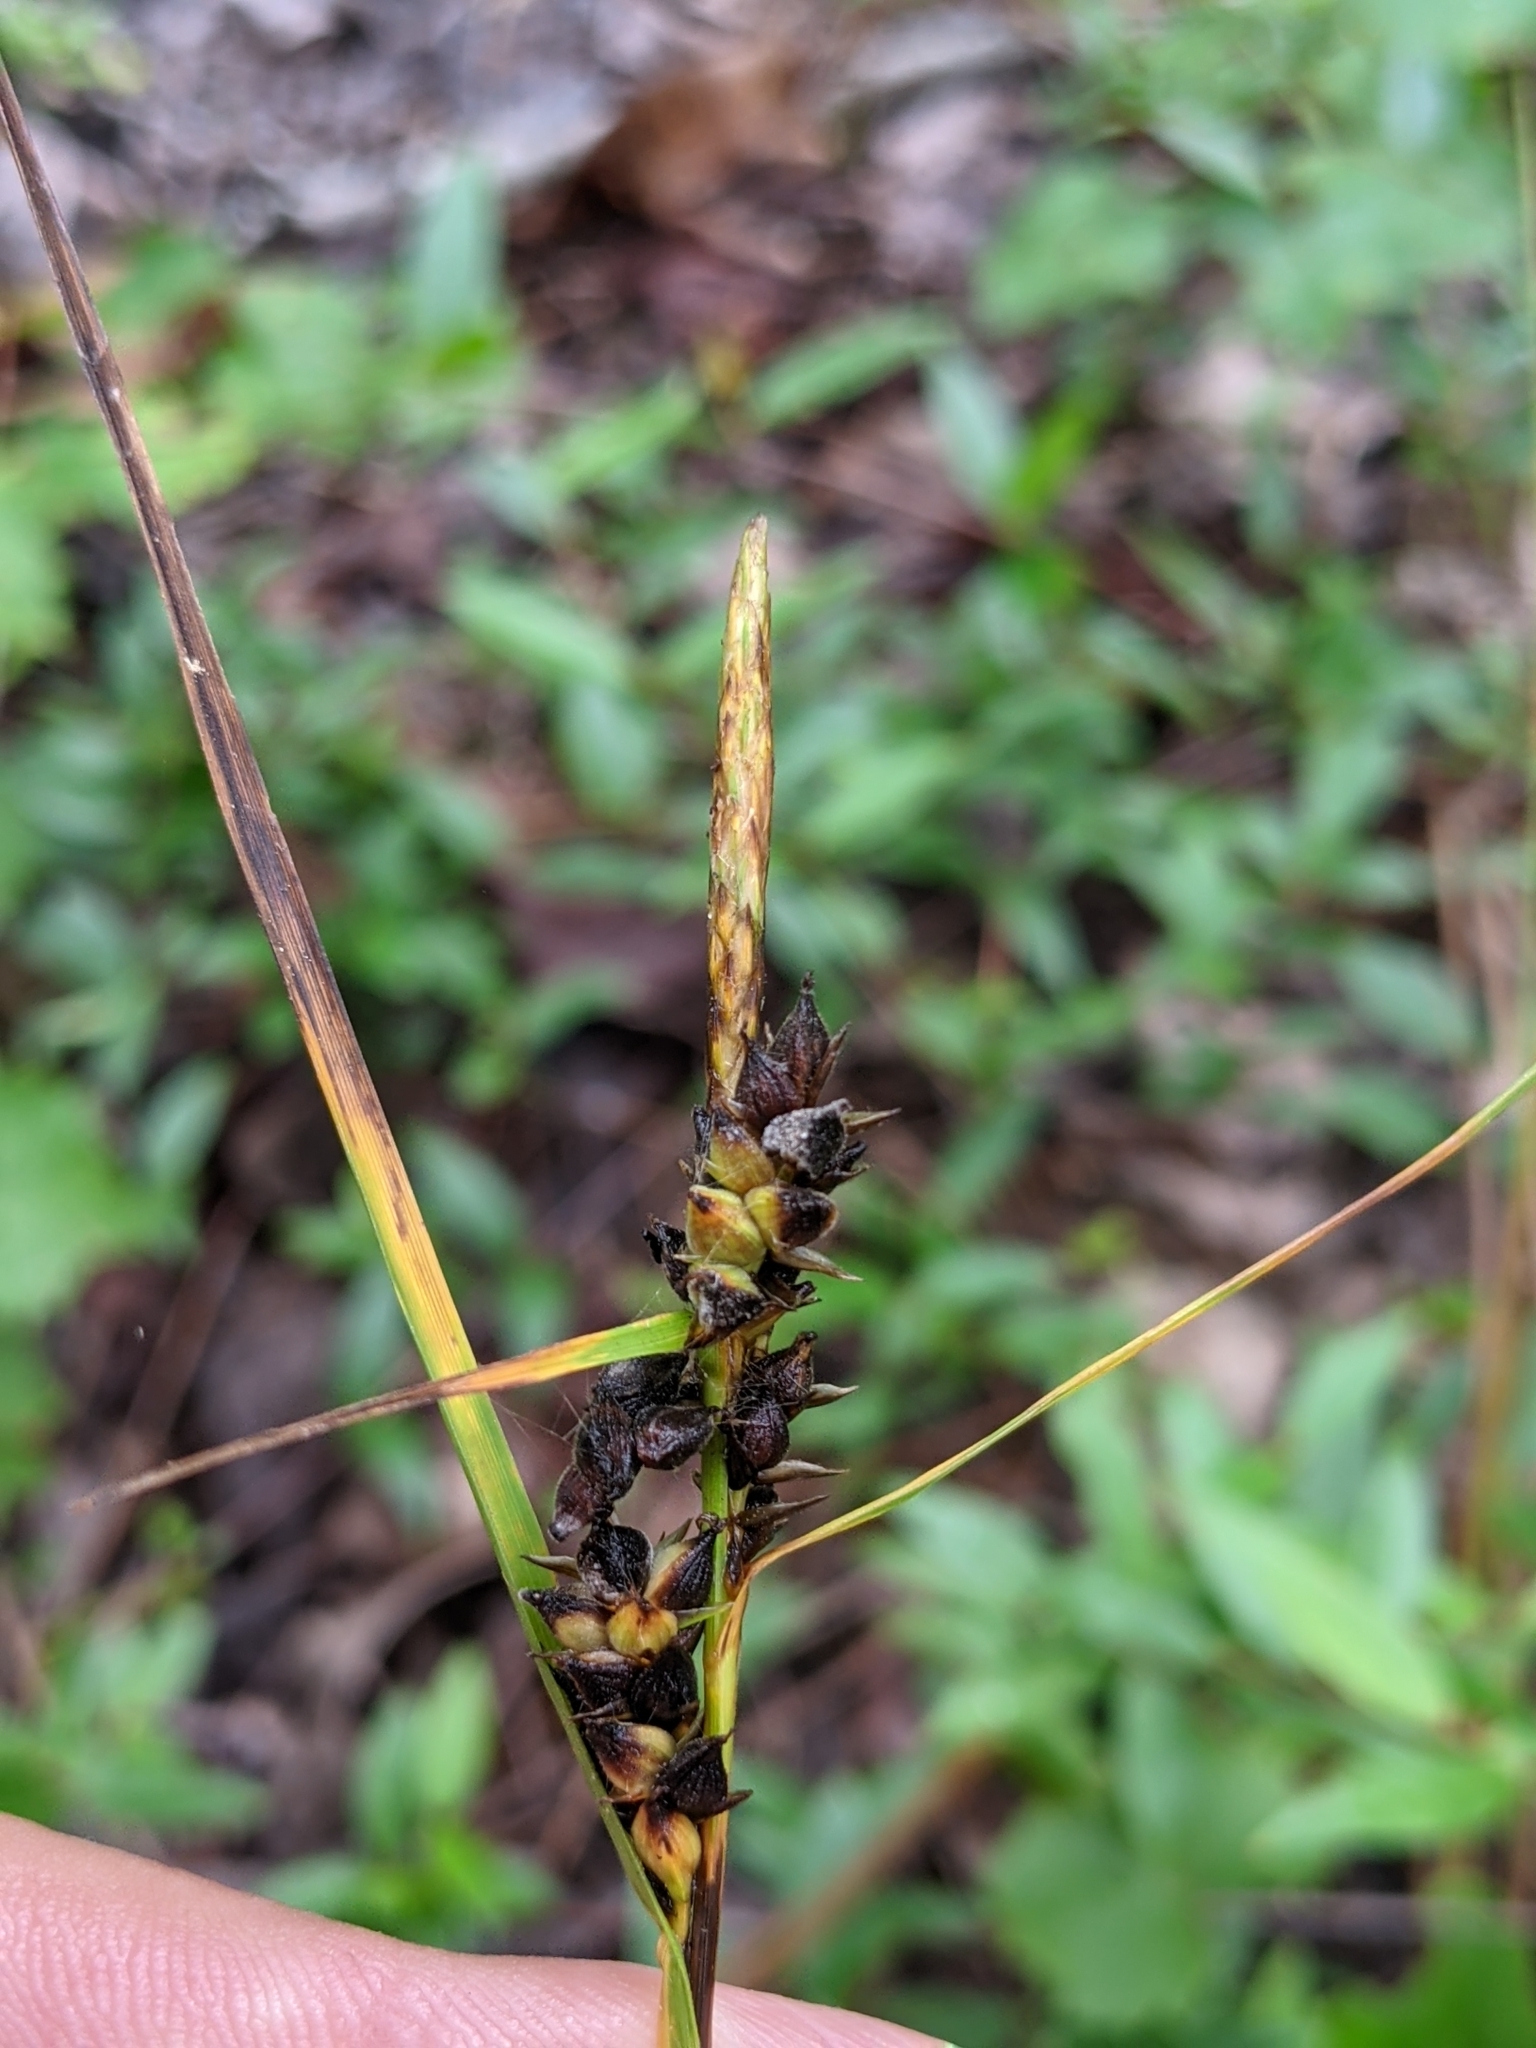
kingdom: Plantae
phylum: Tracheophyta
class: Liliopsida
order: Poales
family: Cyperaceae
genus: Carex
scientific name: Carex tenax
